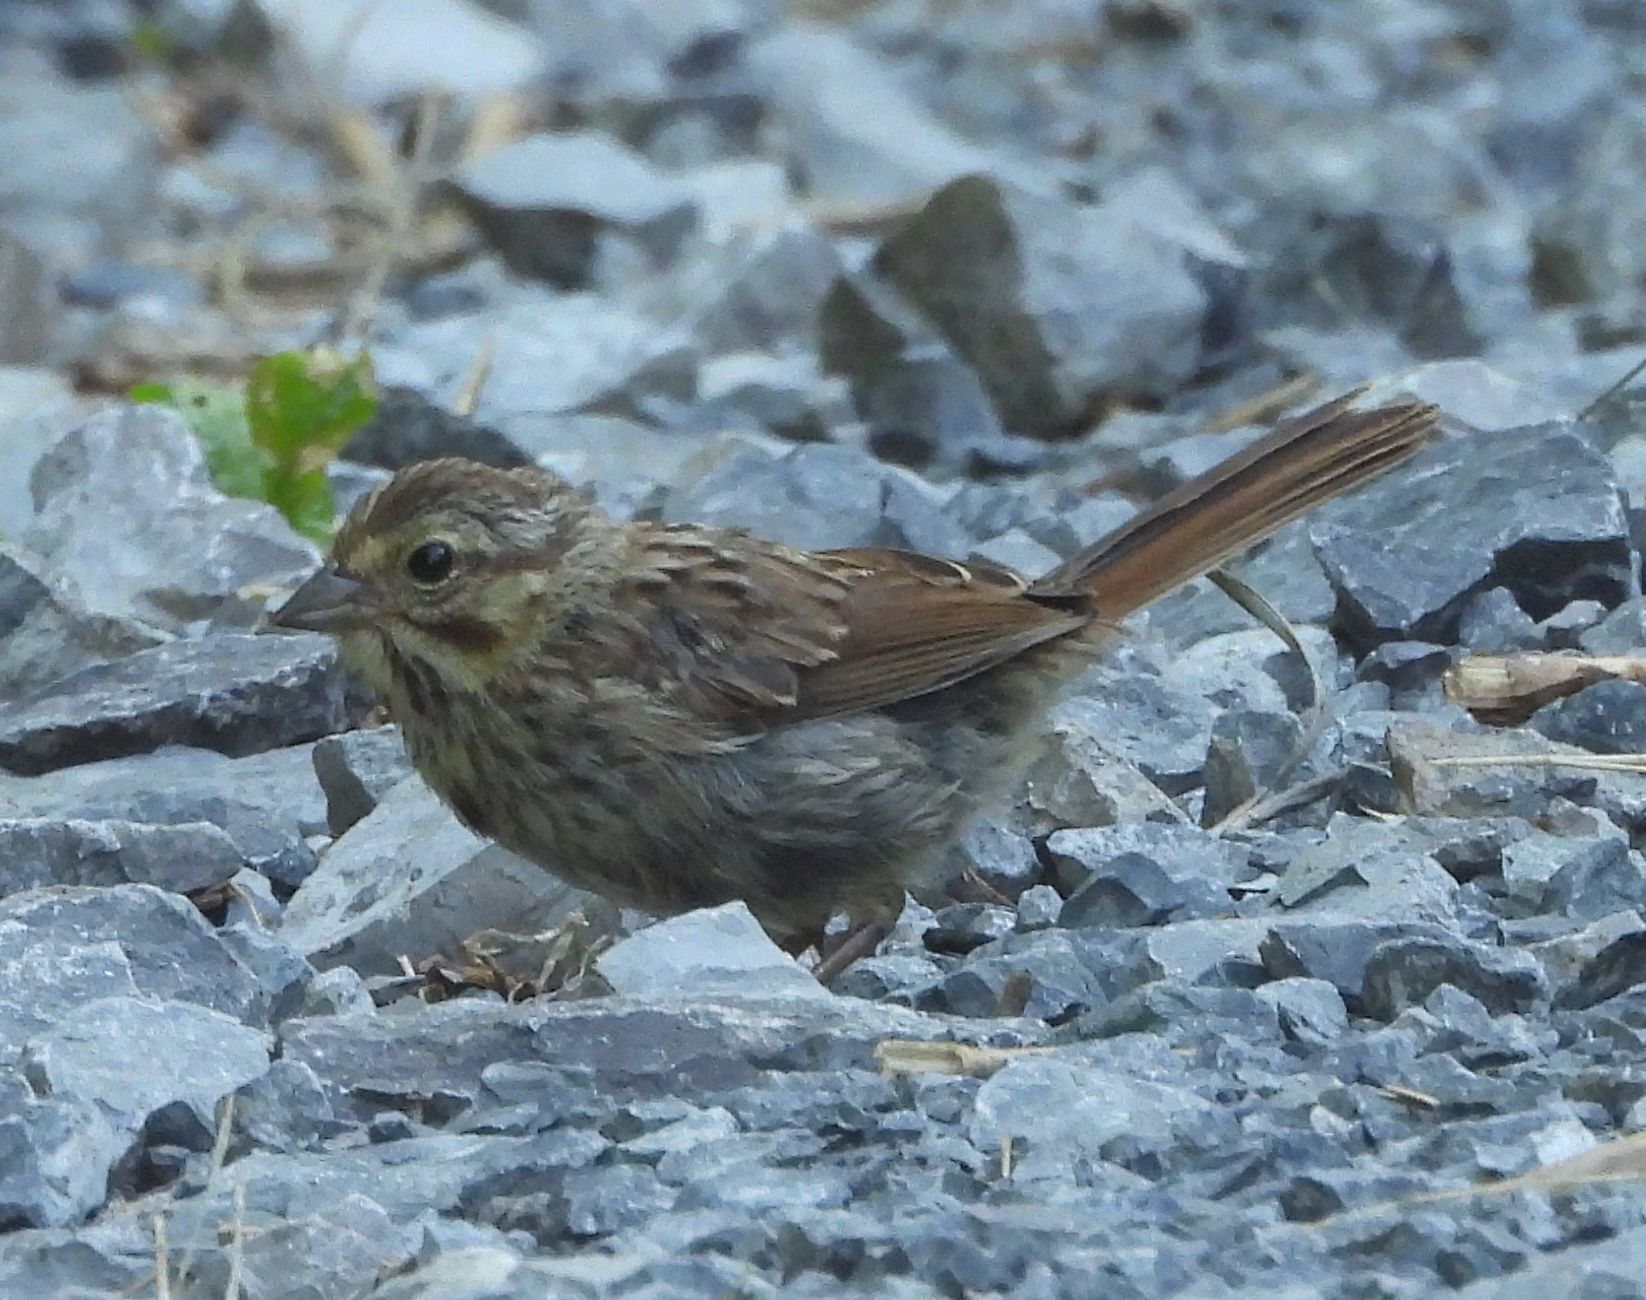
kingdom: Animalia
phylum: Chordata
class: Aves
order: Passeriformes
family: Passerellidae
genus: Melospiza
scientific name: Melospiza melodia
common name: Song sparrow
